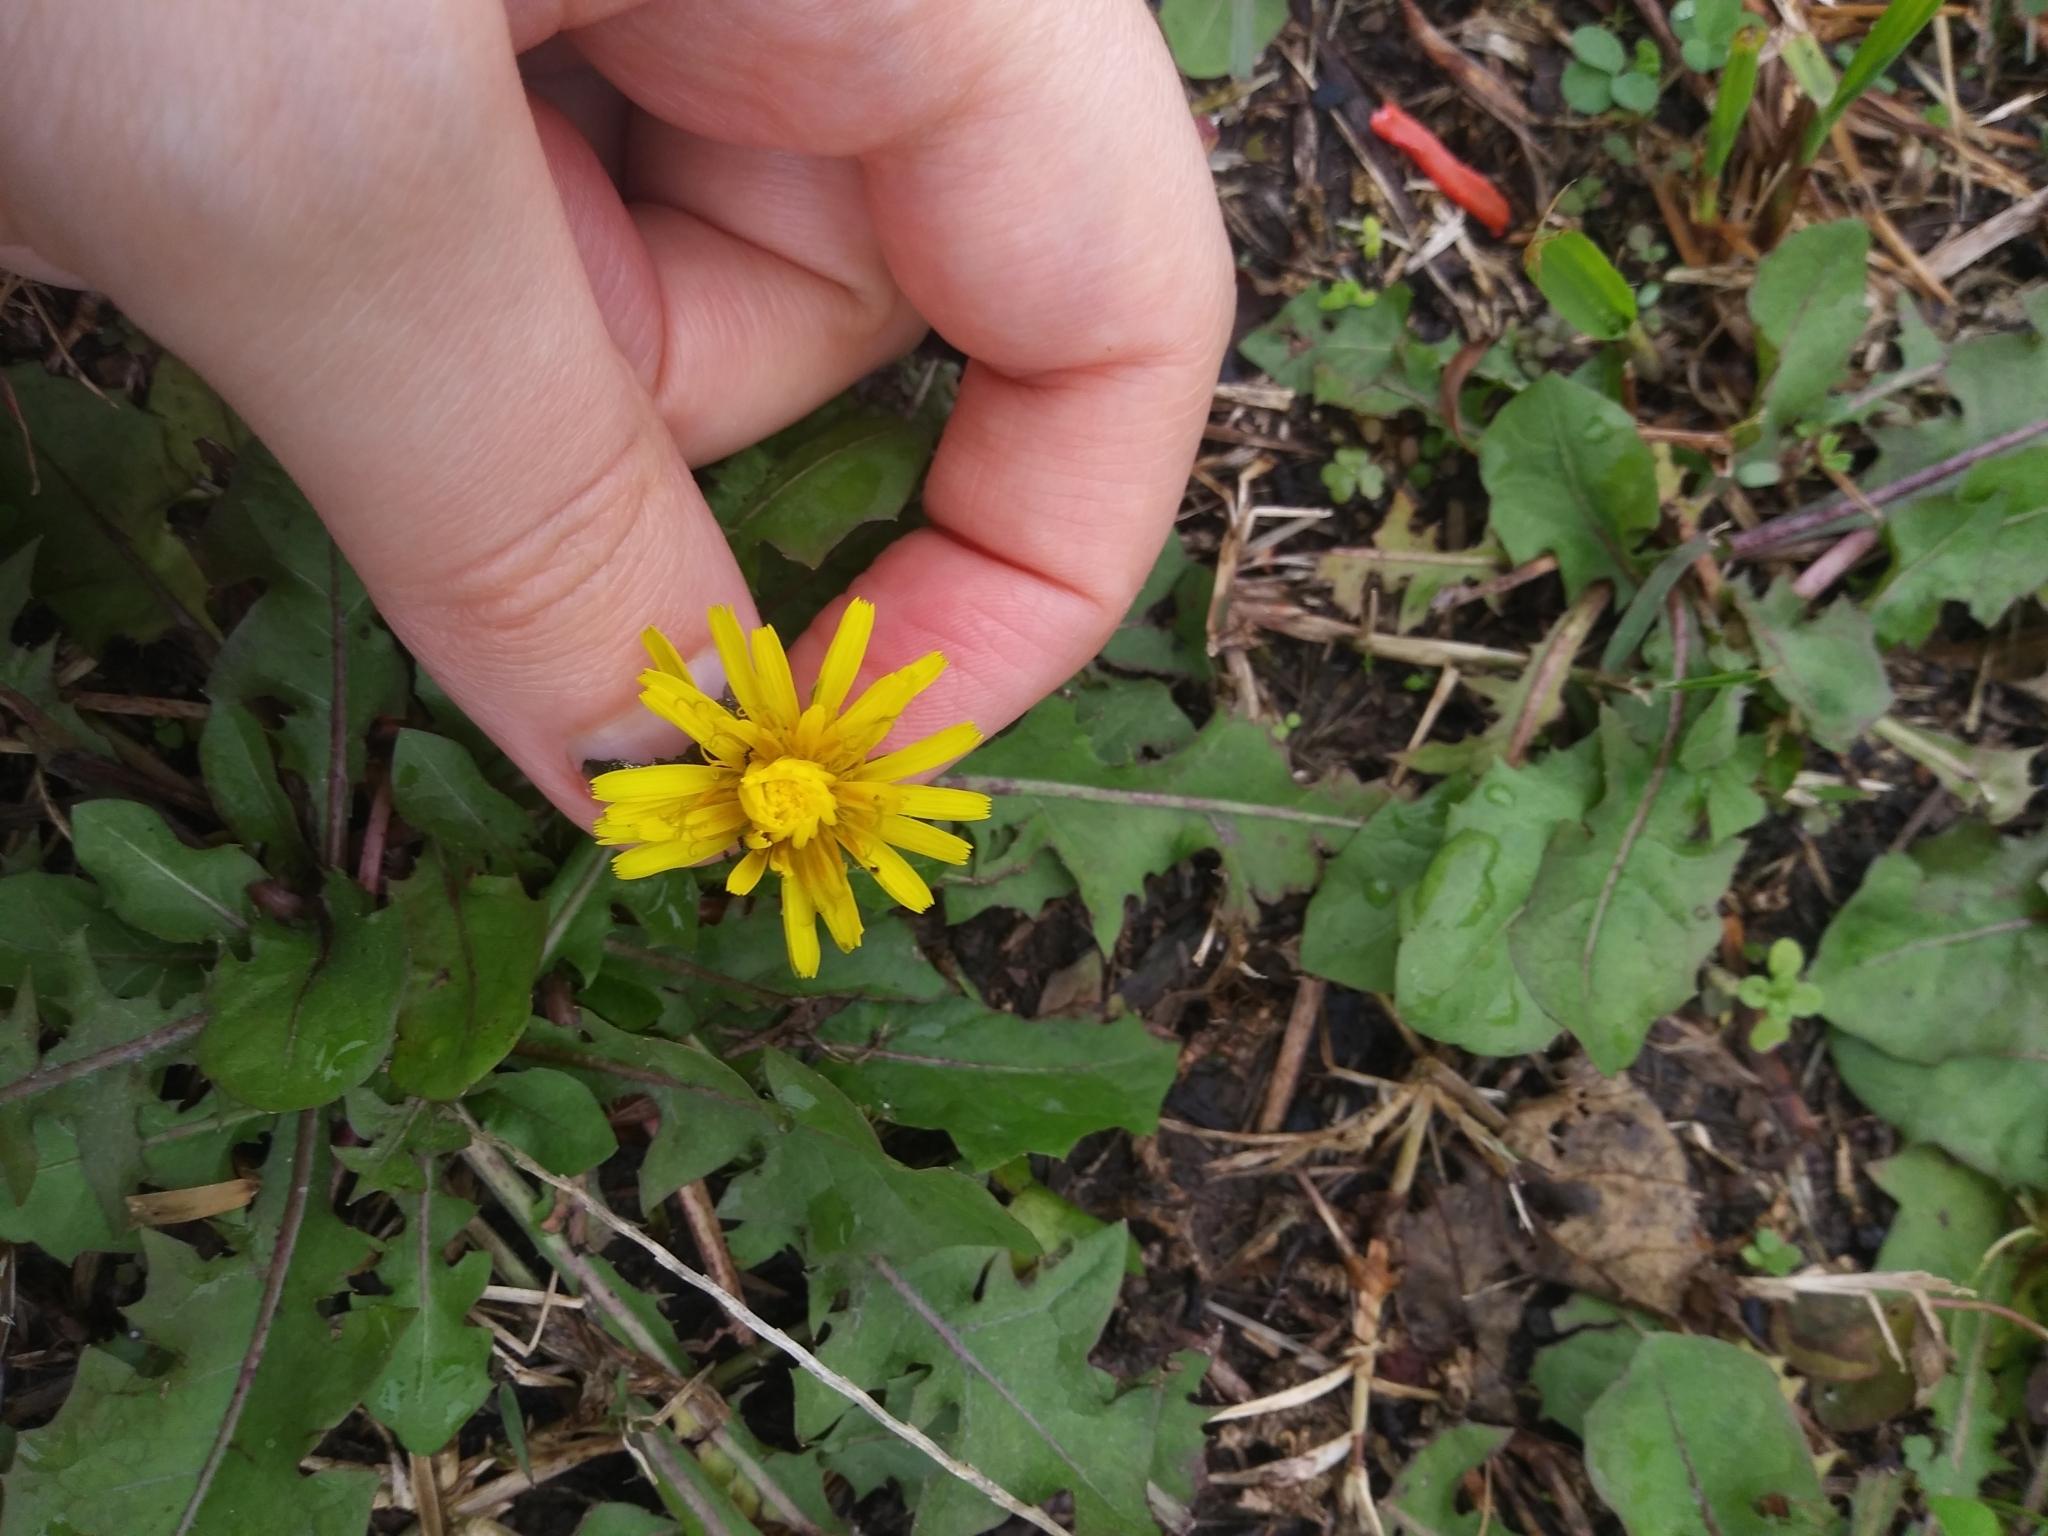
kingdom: Plantae
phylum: Tracheophyta
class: Magnoliopsida
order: Asterales
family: Asteraceae
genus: Taraxacum
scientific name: Taraxacum officinale
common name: Common dandelion
